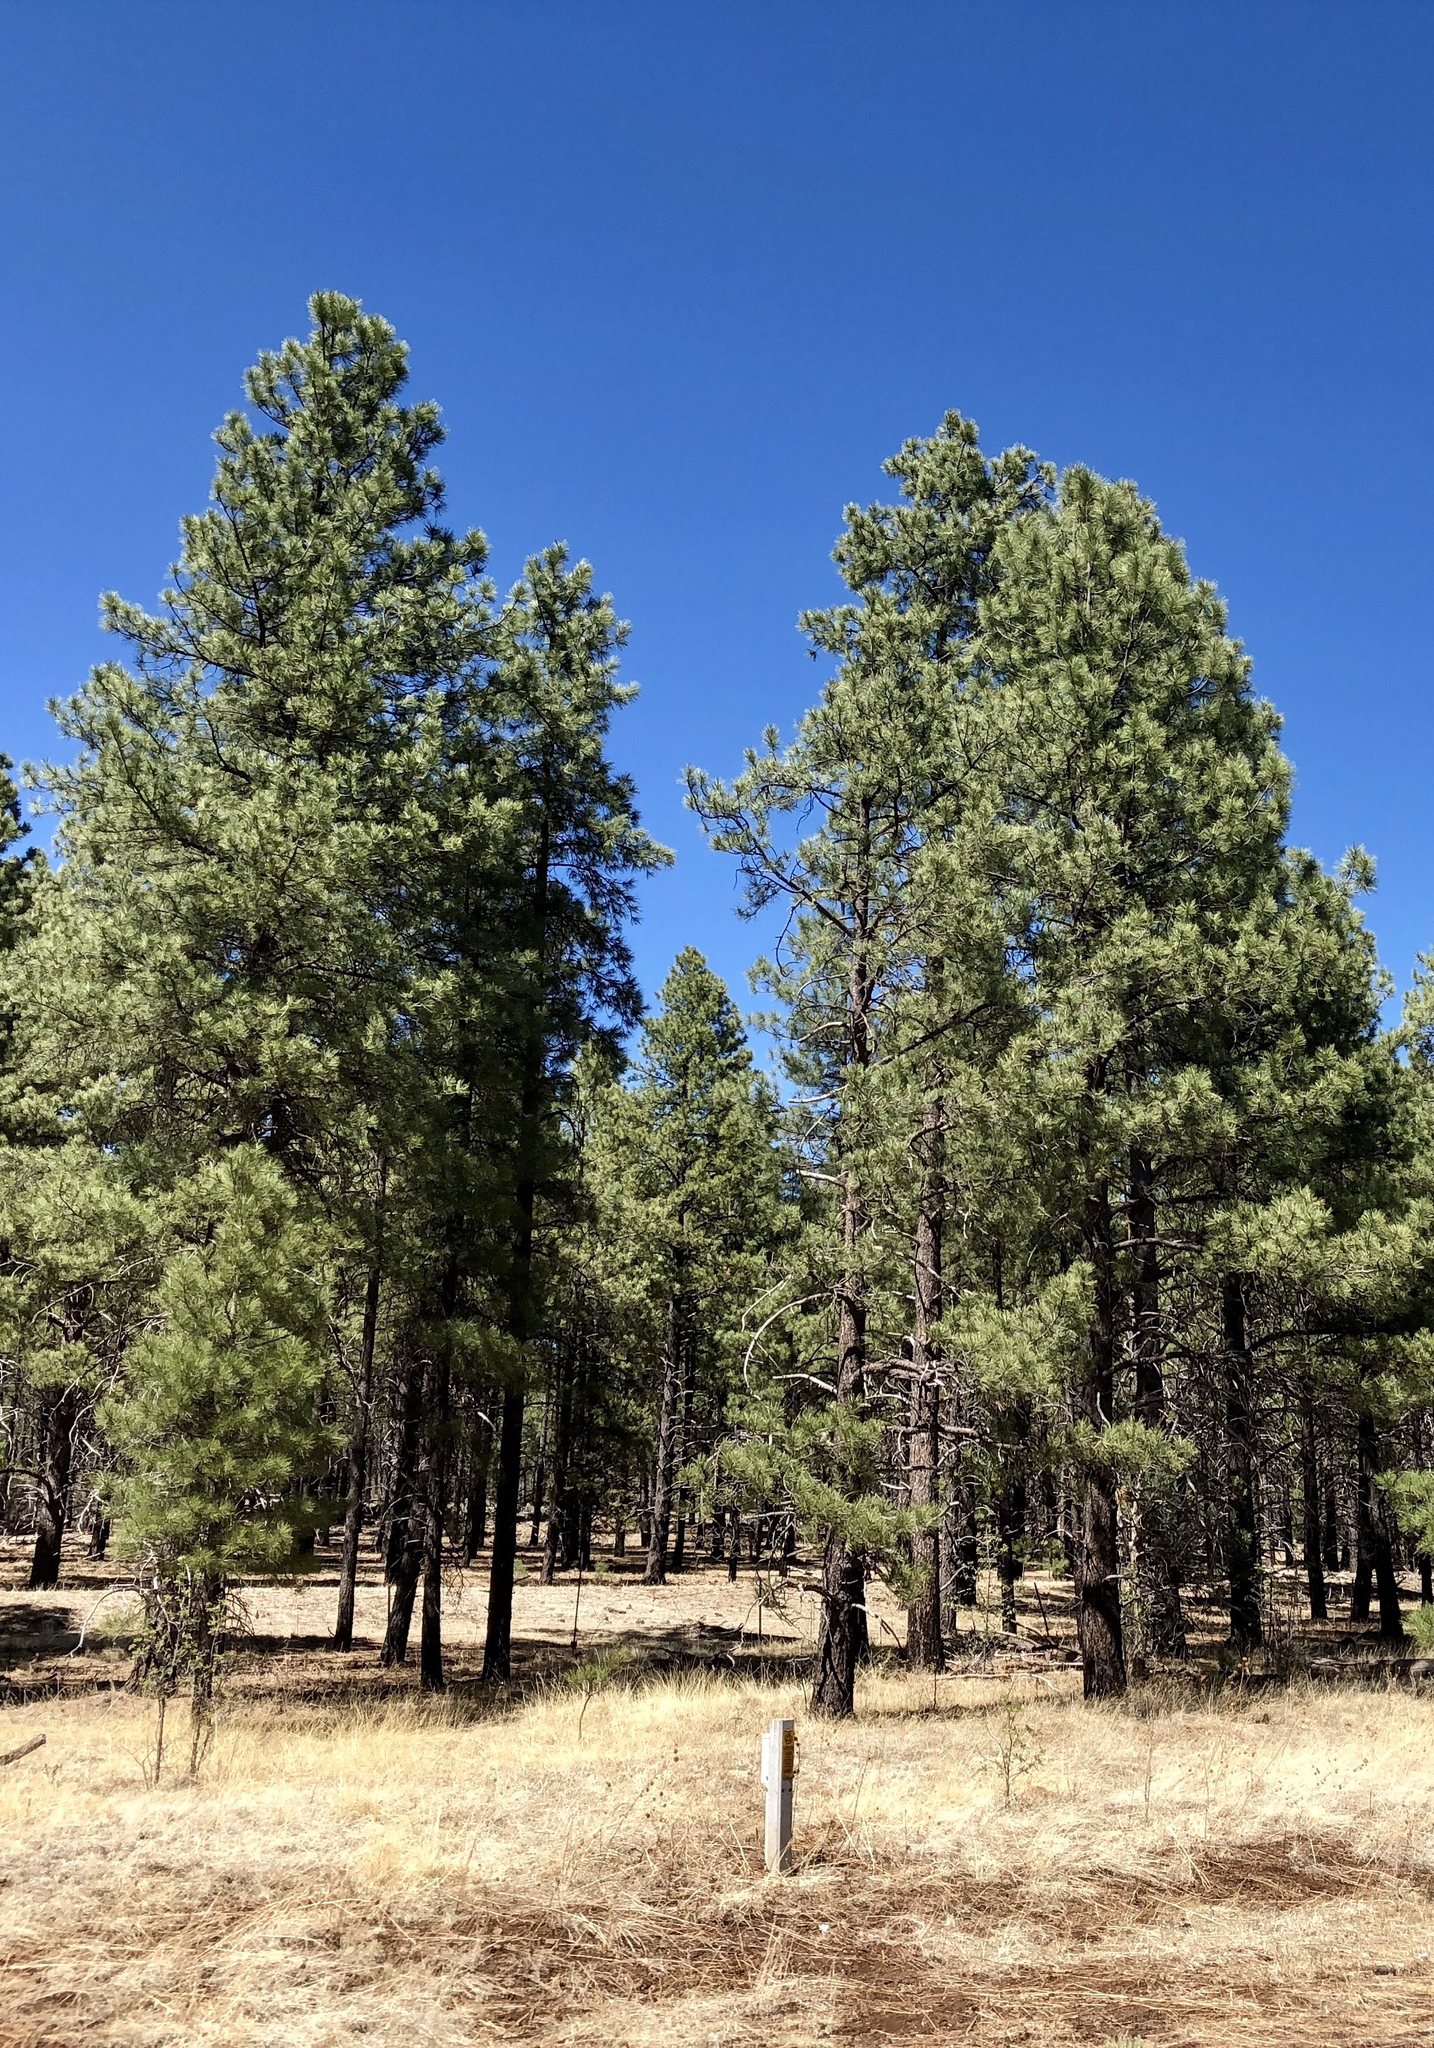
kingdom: Plantae
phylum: Tracheophyta
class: Pinopsida
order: Pinales
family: Pinaceae
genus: Pinus
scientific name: Pinus ponderosa
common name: Western yellow-pine
